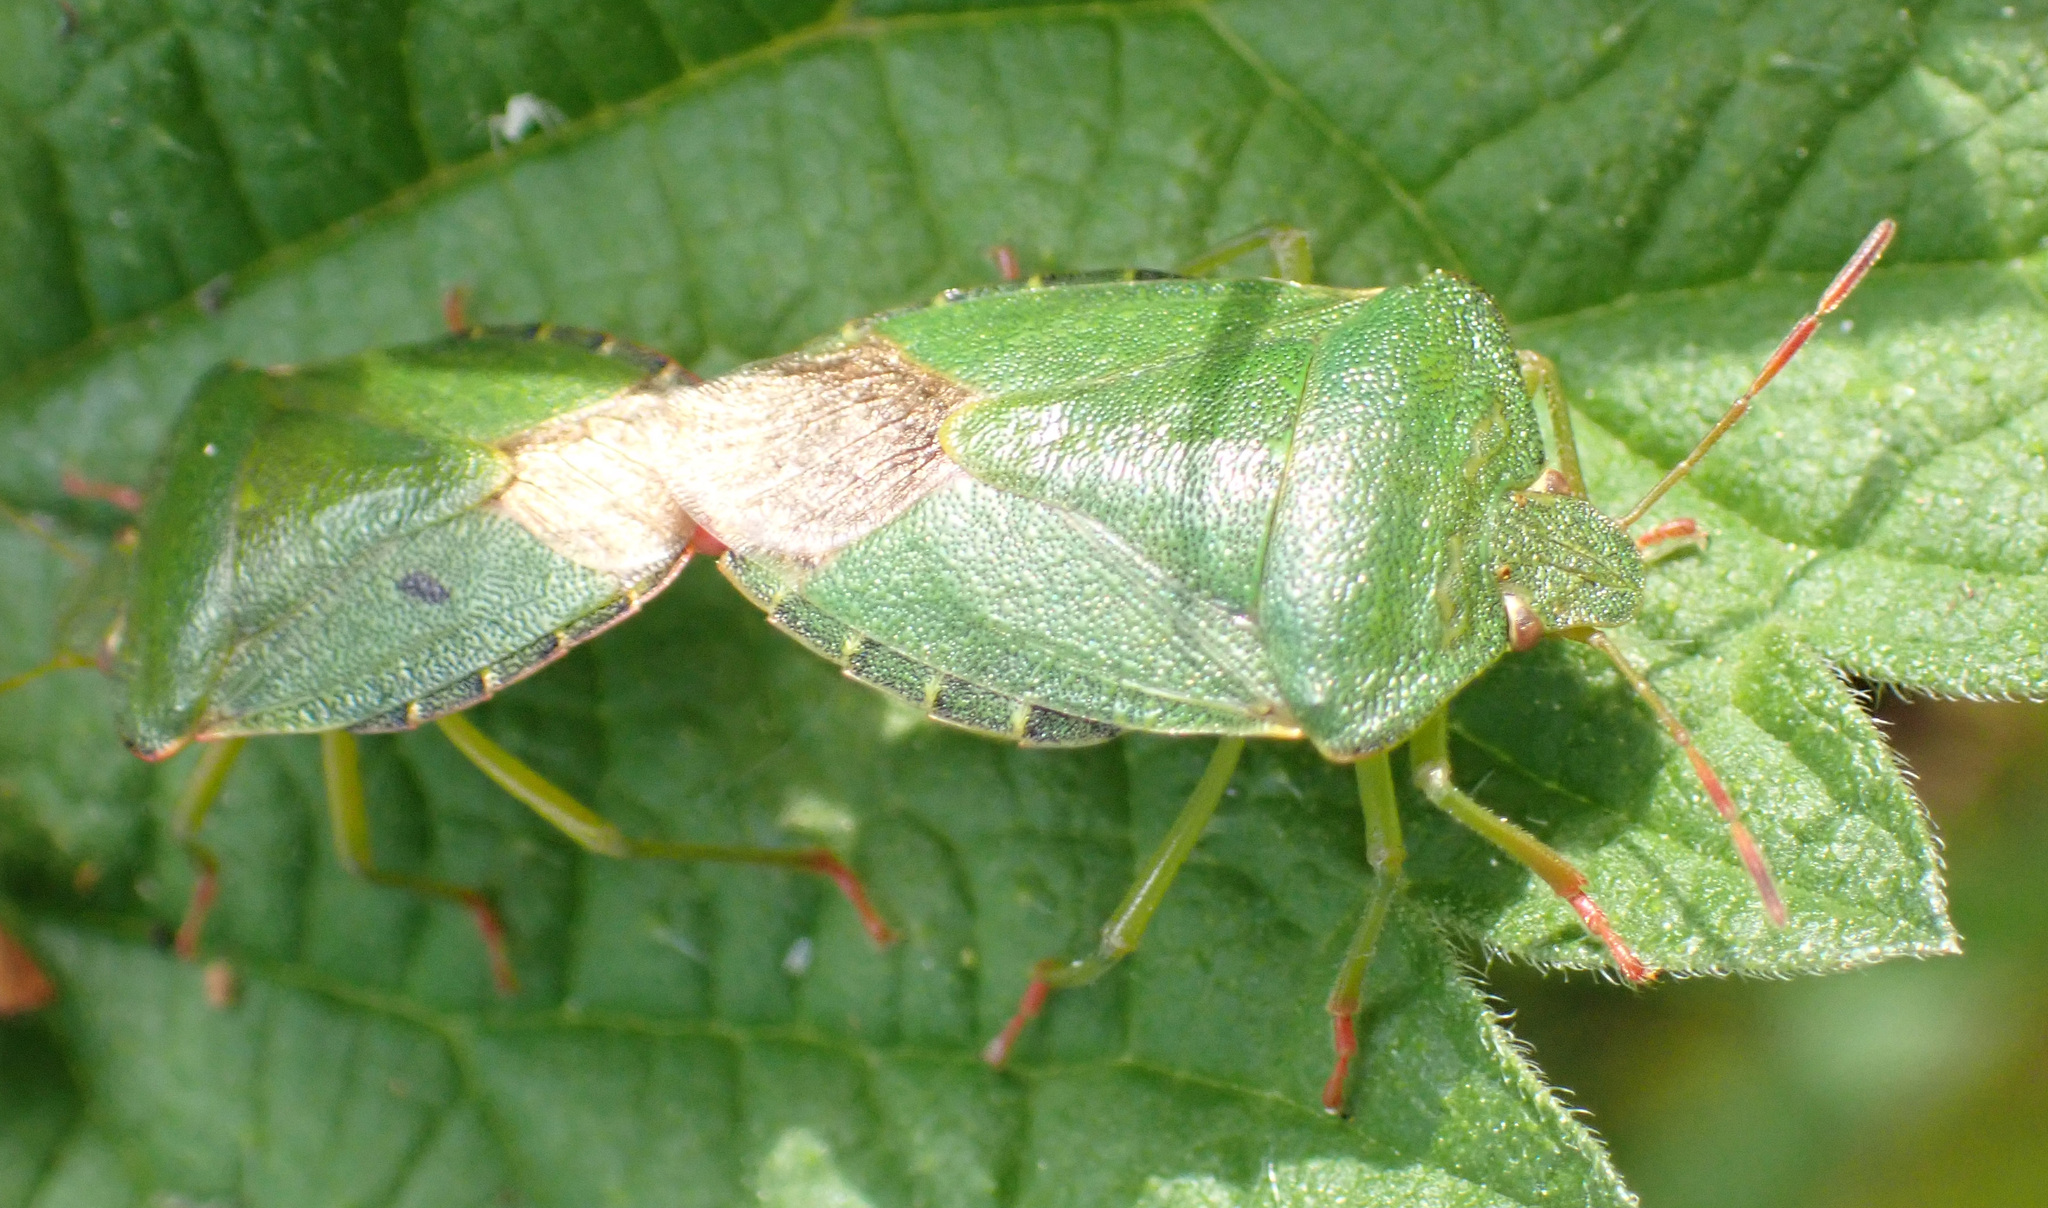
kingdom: Animalia
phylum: Arthropoda
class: Insecta
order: Hemiptera
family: Pentatomidae
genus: Palomena
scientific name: Palomena prasina
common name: Green shieldbug
